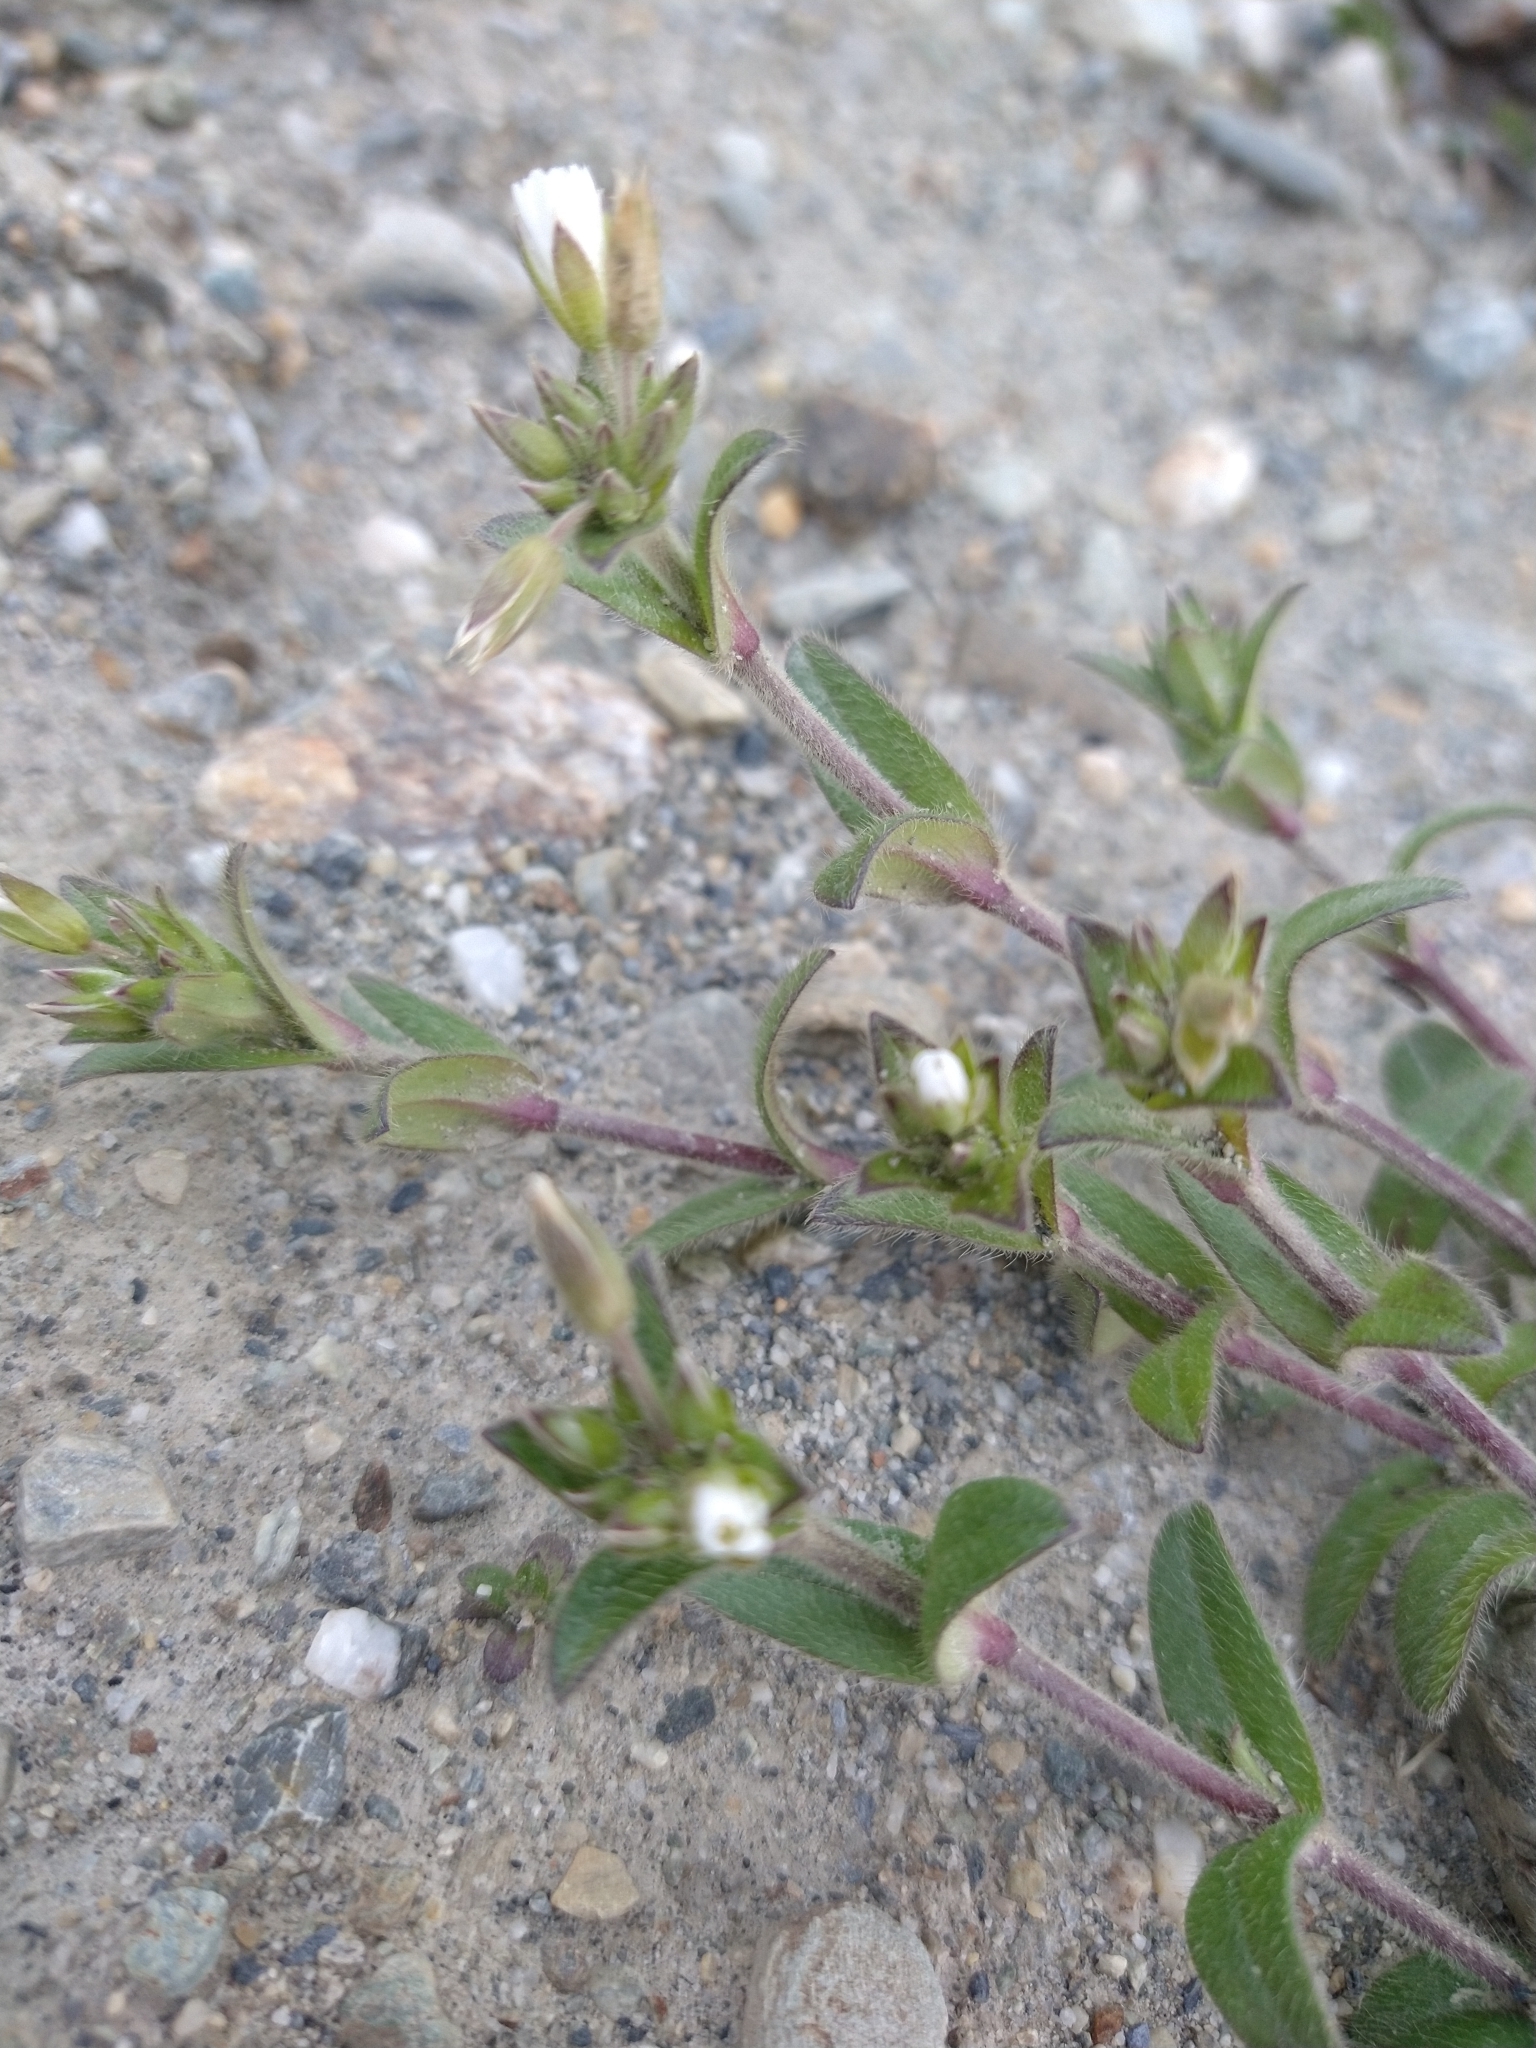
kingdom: Plantae
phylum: Tracheophyta
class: Magnoliopsida
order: Caryophyllales
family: Caryophyllaceae
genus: Cerastium
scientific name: Cerastium arvense
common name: Field mouse-ear
